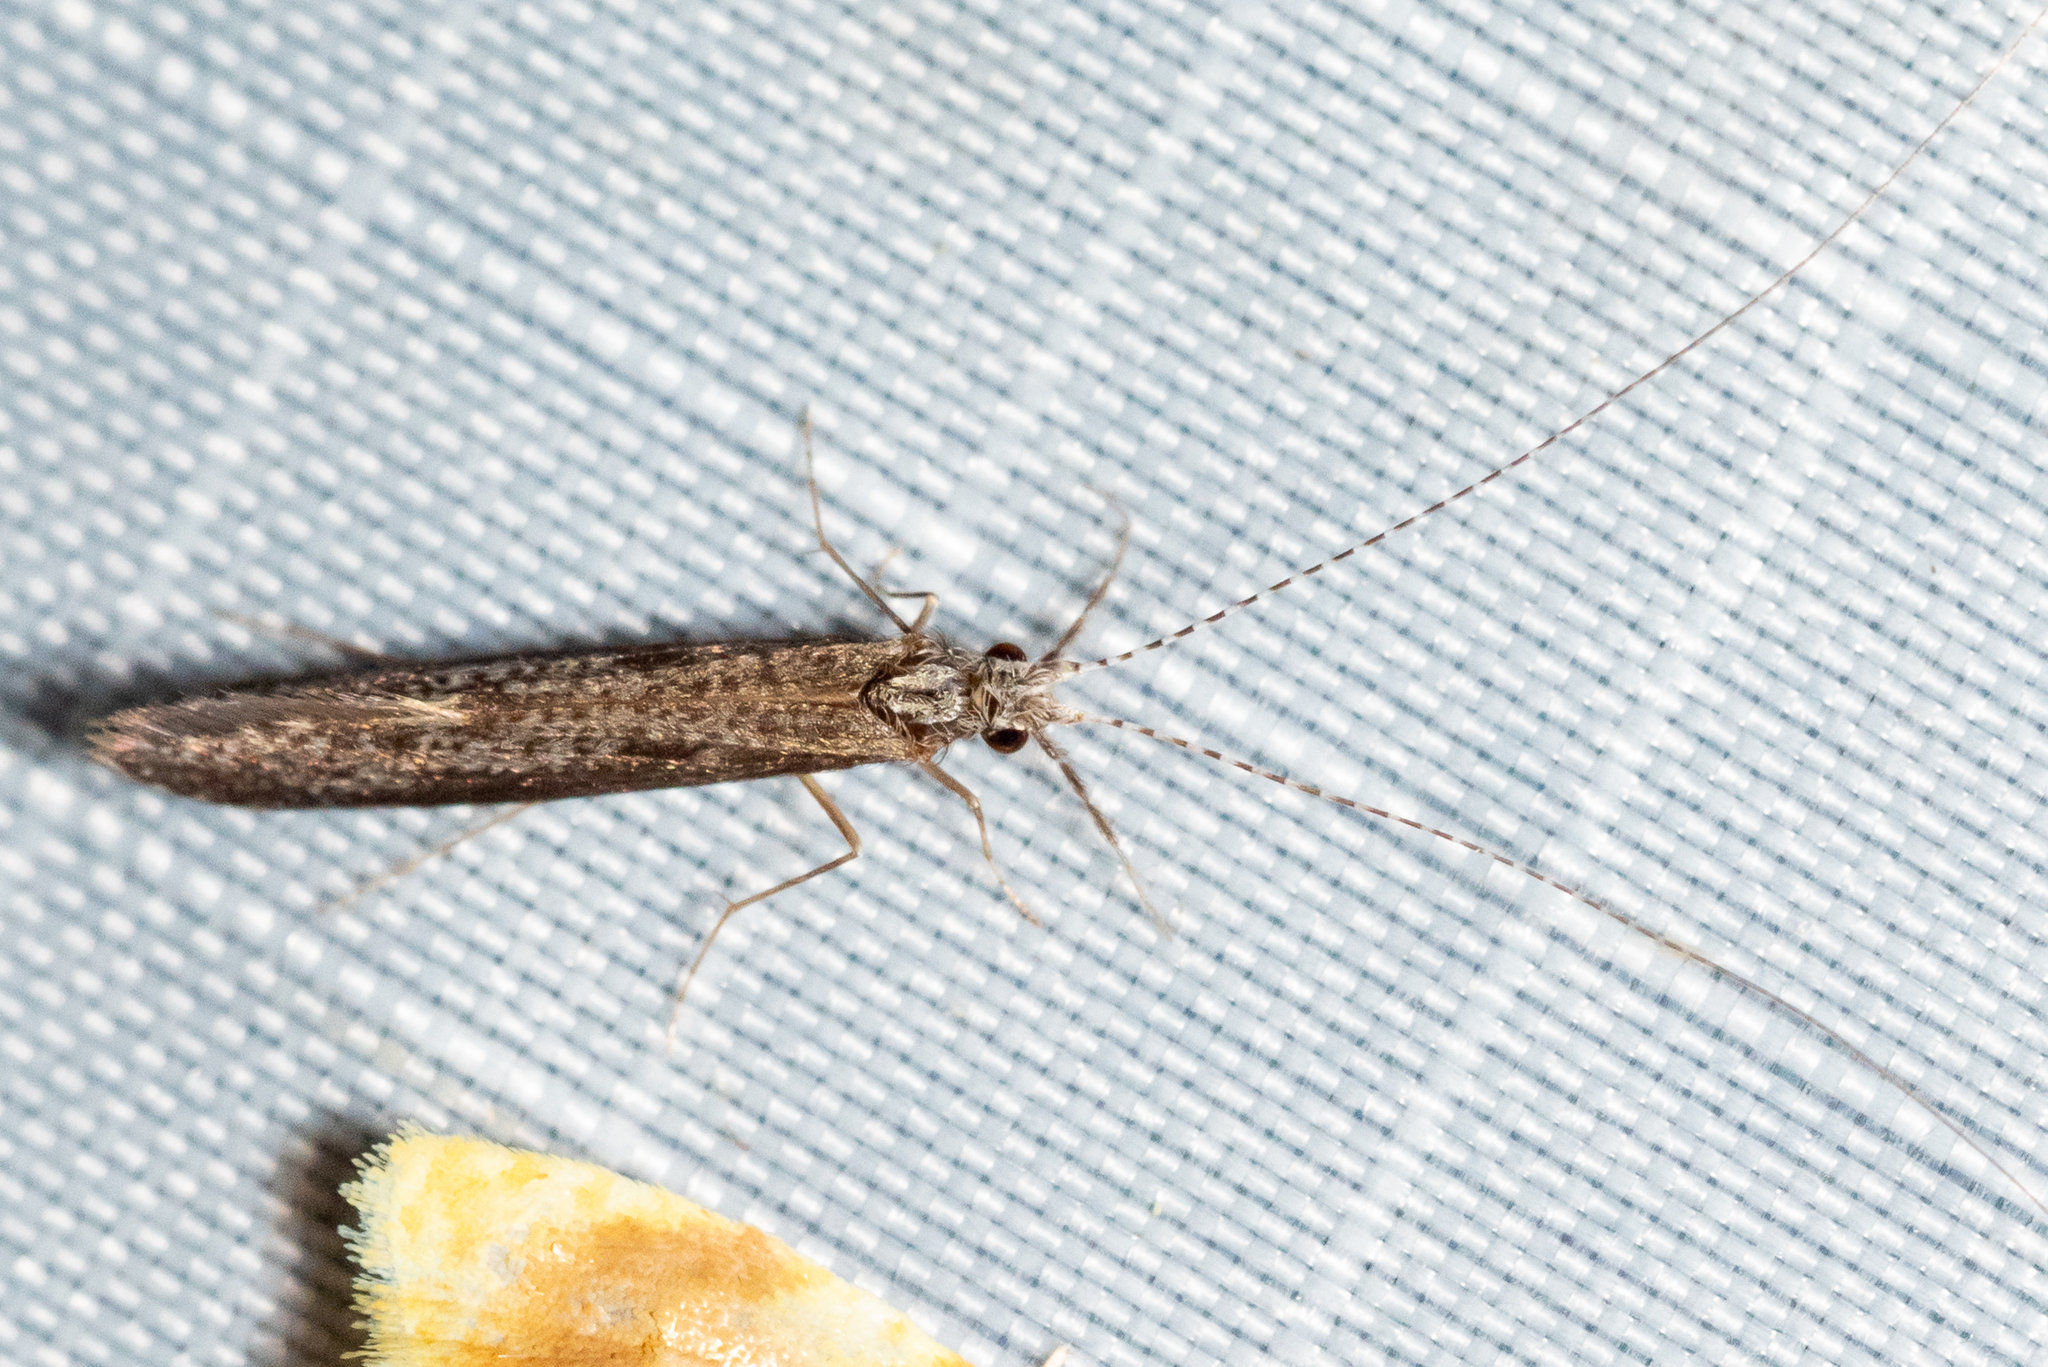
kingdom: Animalia
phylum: Arthropoda
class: Insecta
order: Trichoptera
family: Leptoceridae
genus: Leptocerus
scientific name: Leptocerus americanus
